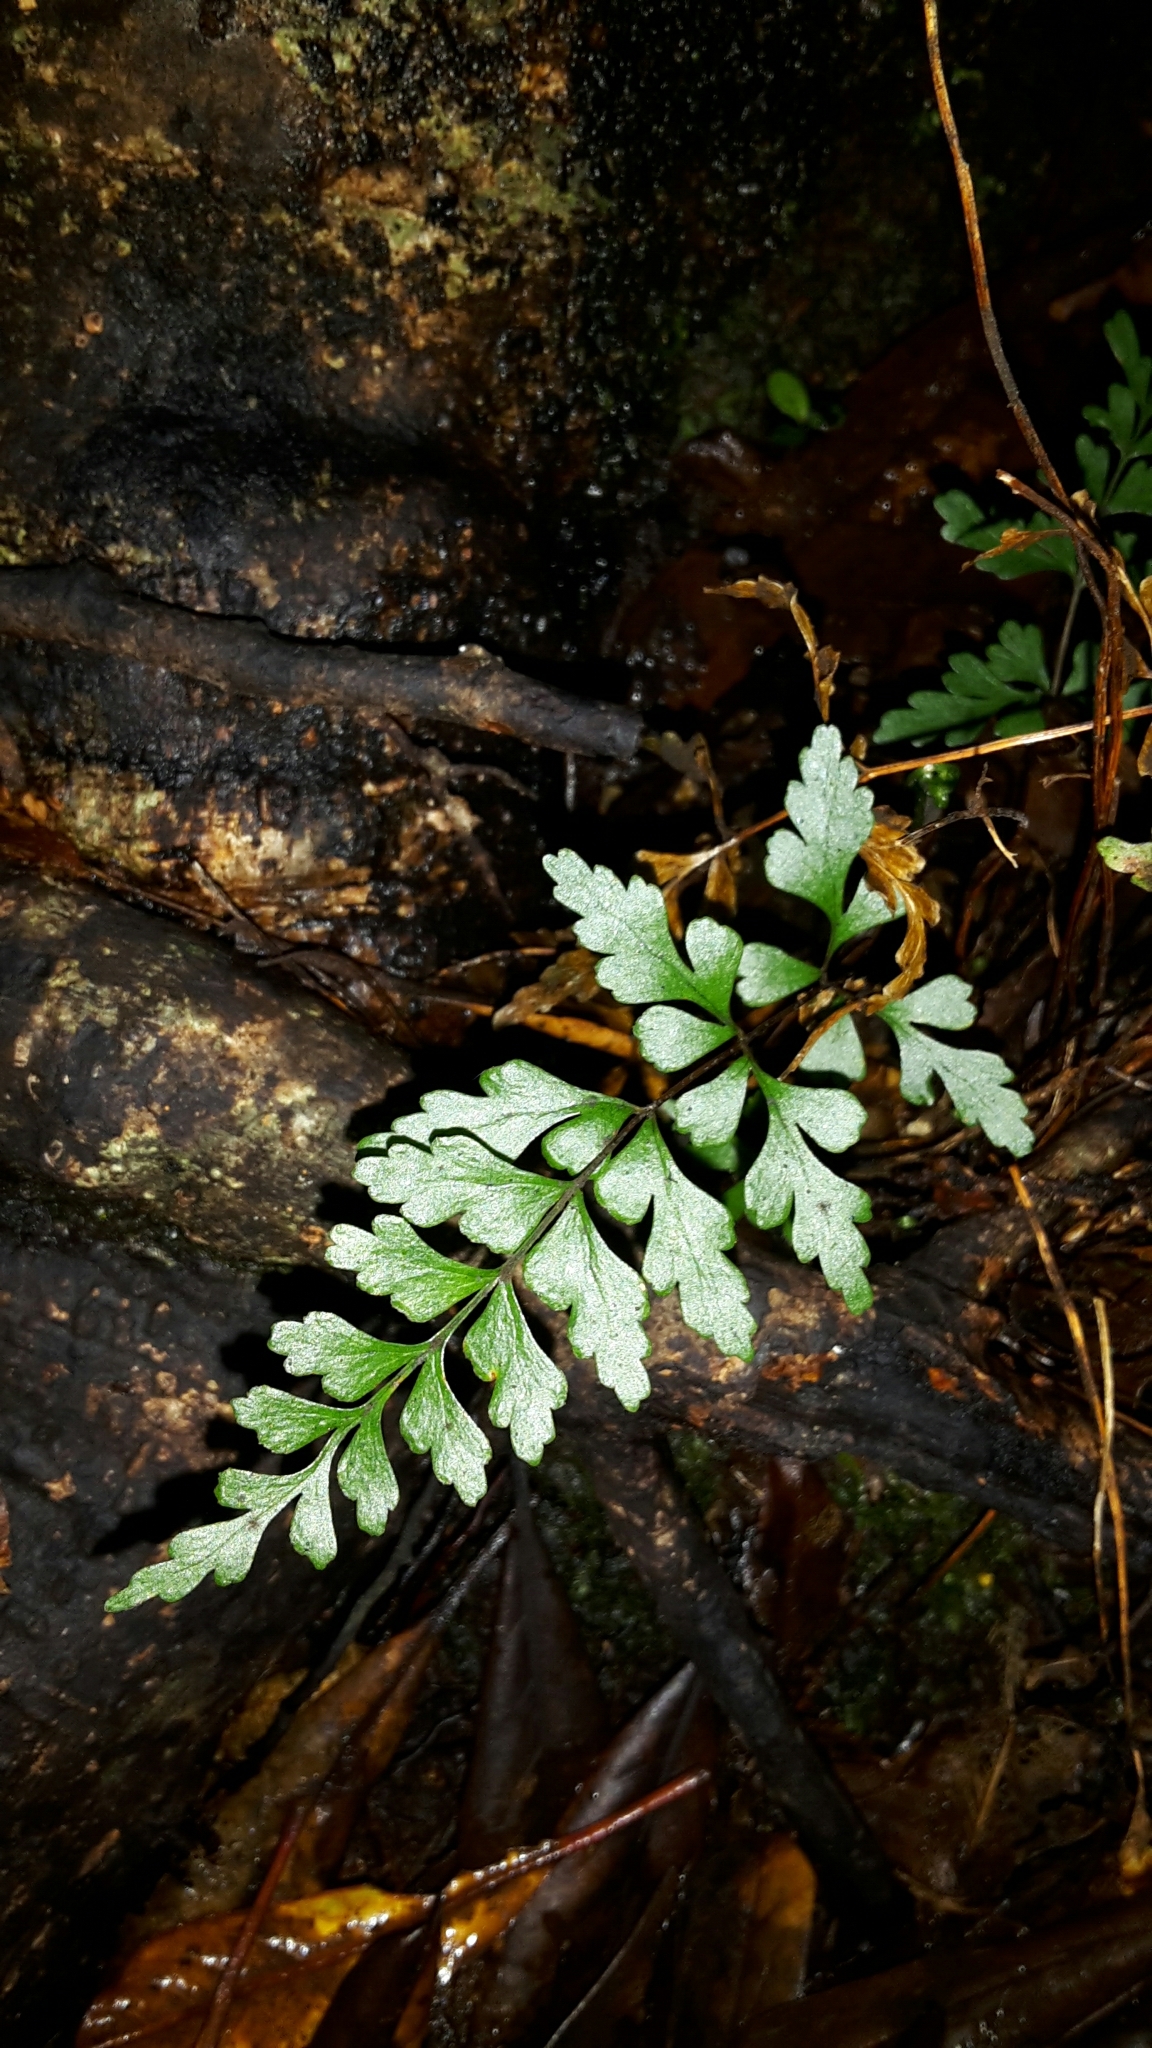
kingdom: Plantae
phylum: Tracheophyta
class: Polypodiopsida
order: Polypodiales
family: Lindsaeaceae
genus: Lindsaea
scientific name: Lindsaea trichomanoides
